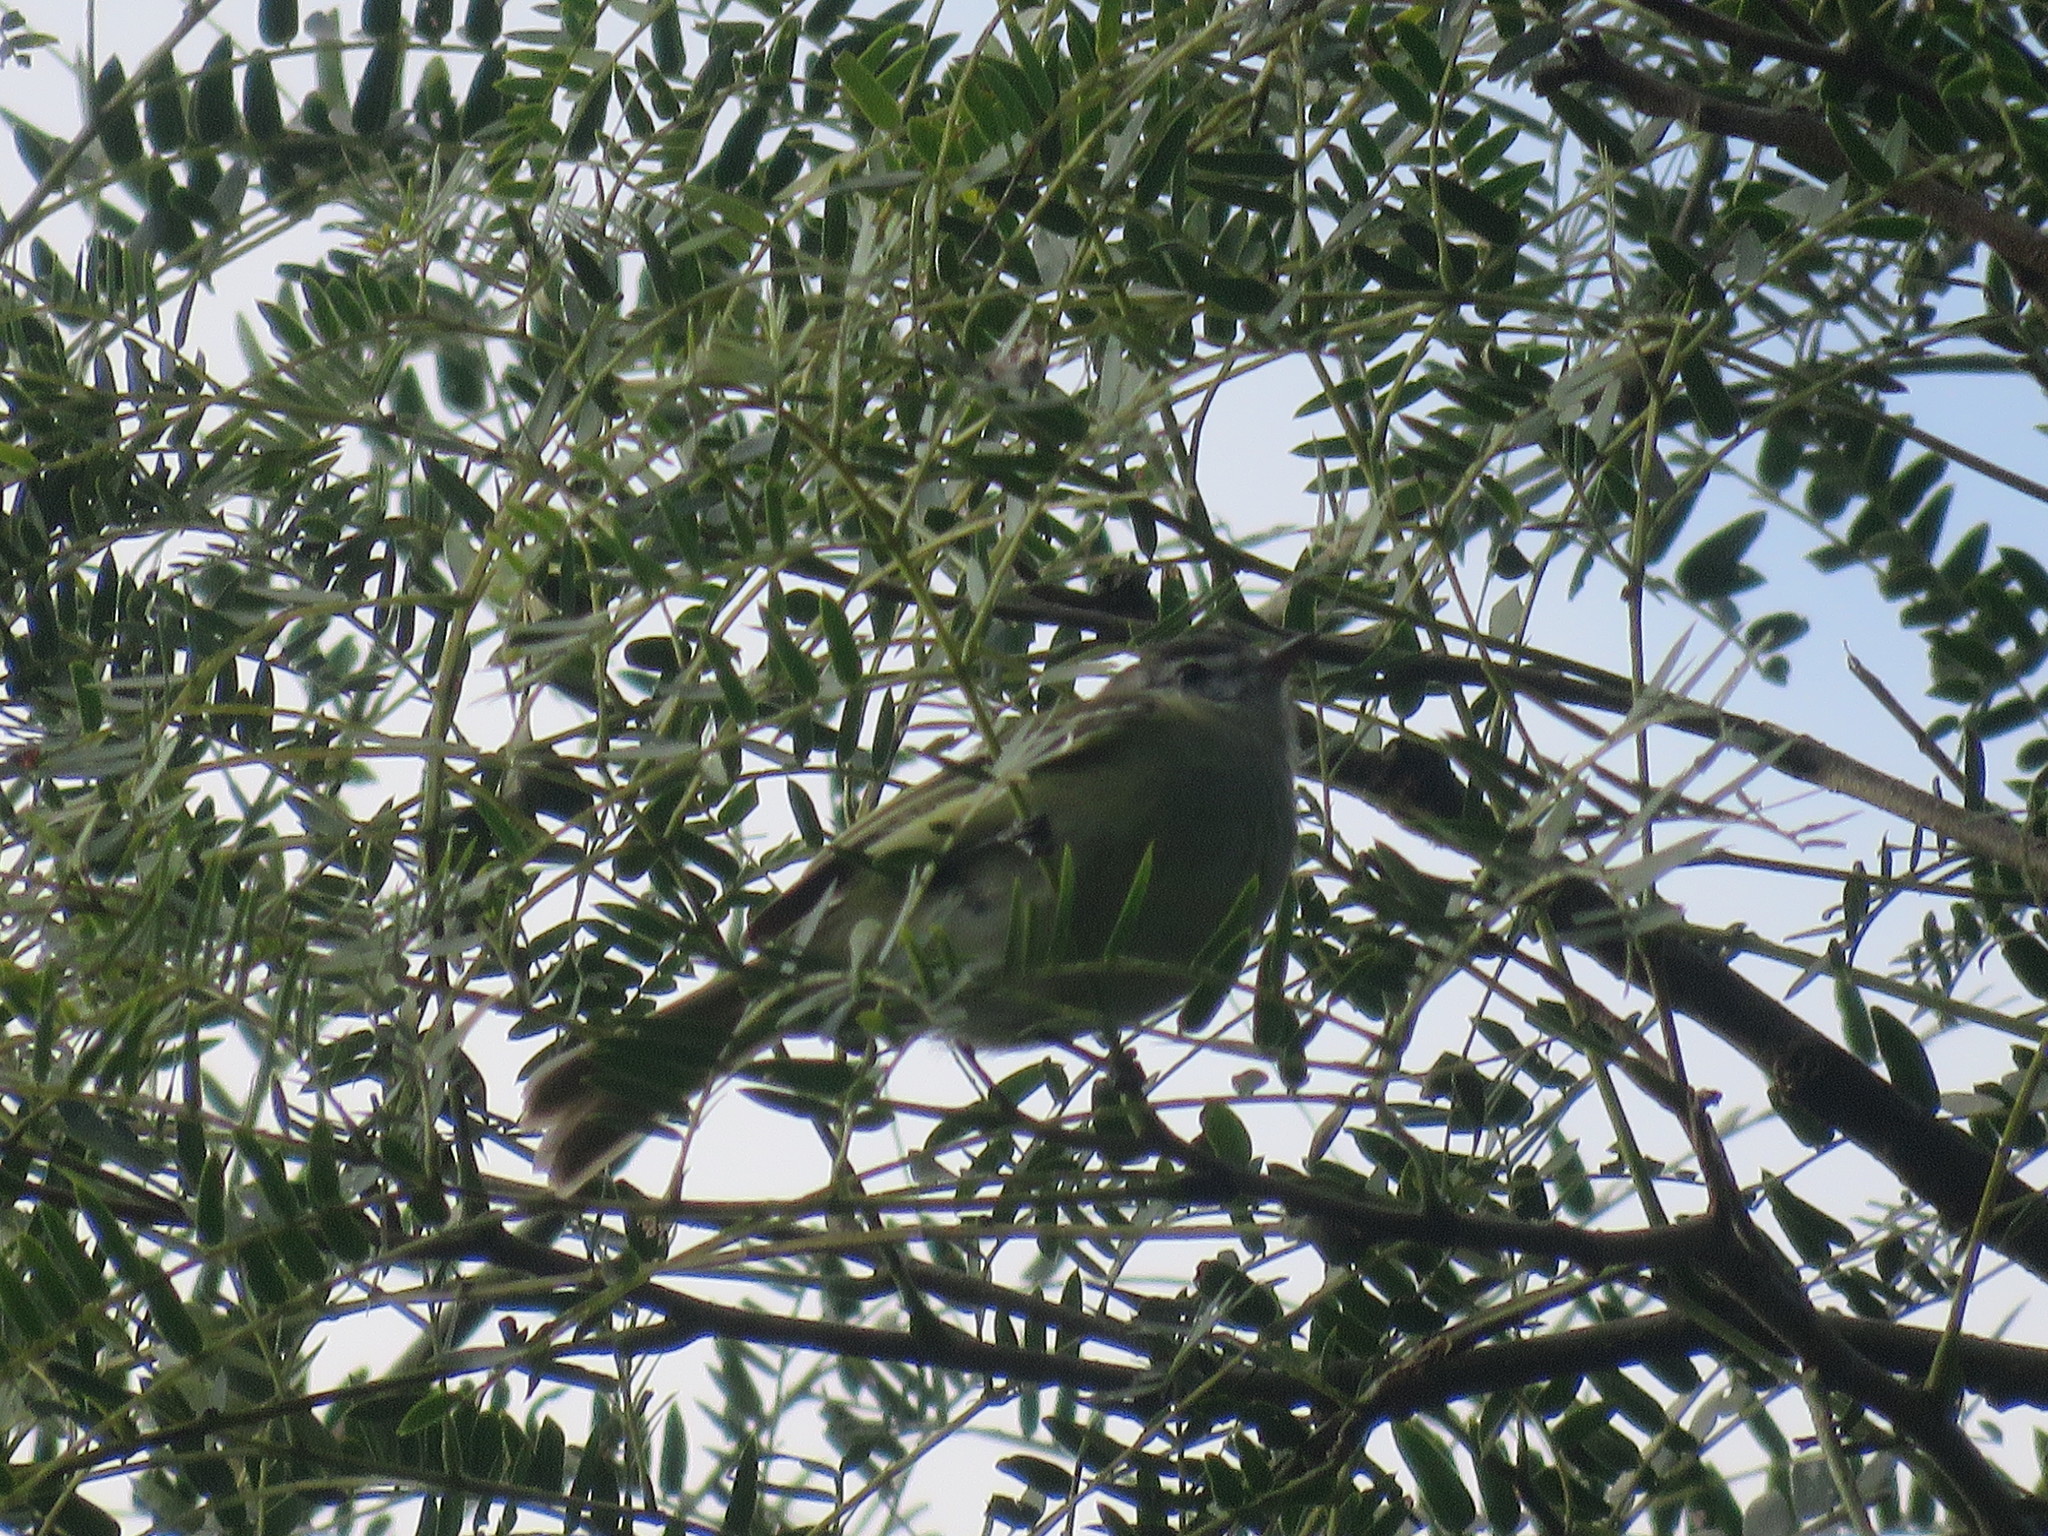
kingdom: Animalia
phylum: Chordata
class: Aves
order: Passeriformes
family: Tyrannidae
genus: Leptopogon
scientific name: Leptopogon amaurocephalus
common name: Sepia-capped flycatcher
